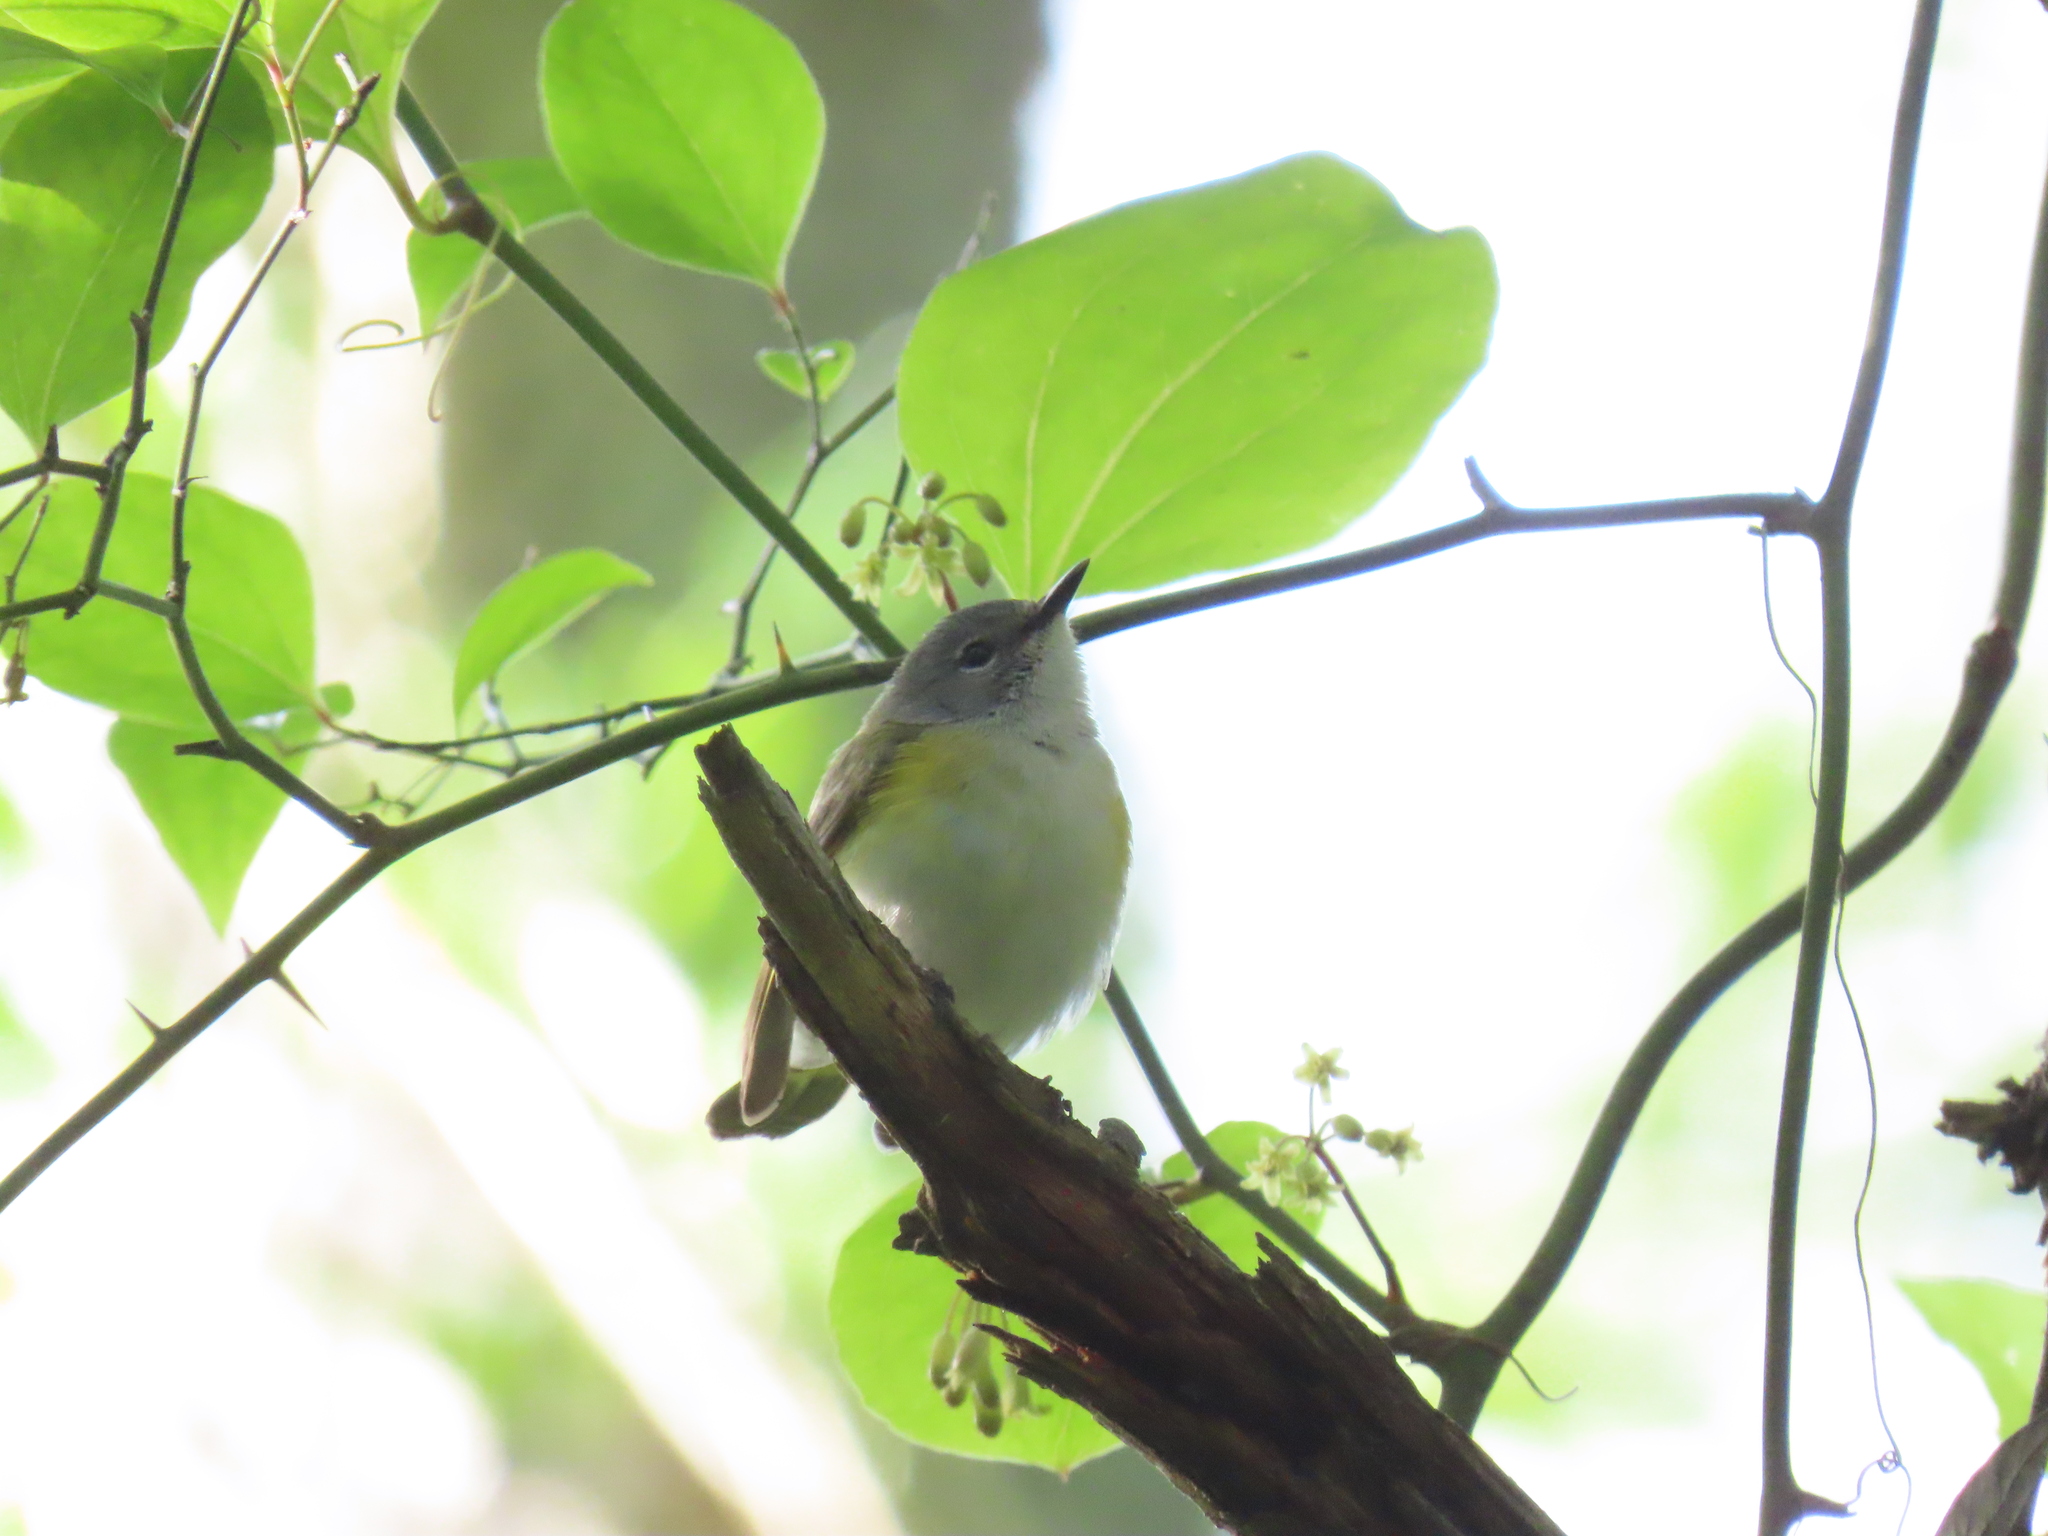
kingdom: Animalia
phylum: Chordata
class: Aves
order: Passeriformes
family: Parulidae
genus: Setophaga
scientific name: Setophaga ruticilla
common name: American redstart
